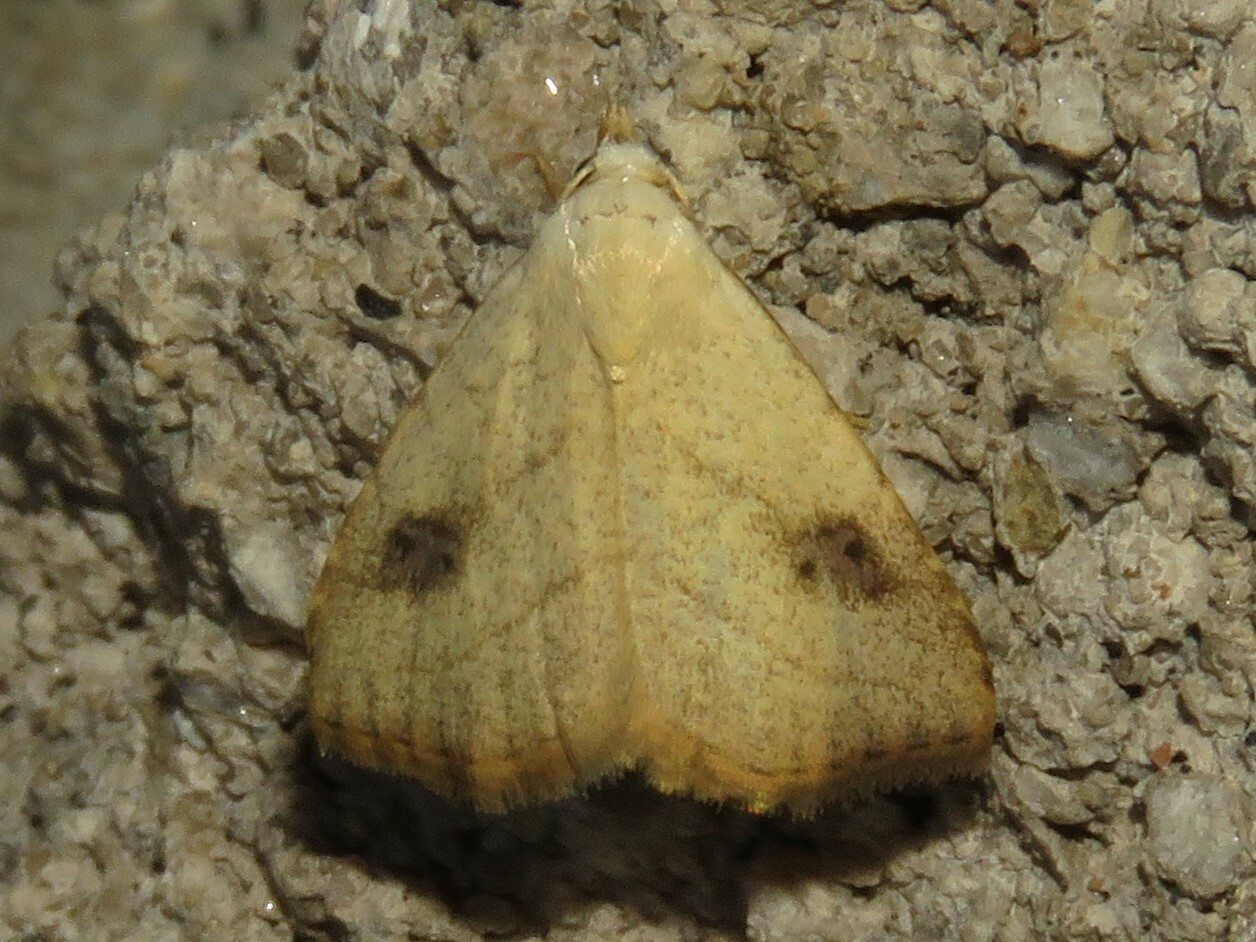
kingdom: Animalia
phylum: Arthropoda
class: Insecta
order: Lepidoptera
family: Erebidae
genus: Rivula
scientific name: Rivula propinqualis
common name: Spotted grass moth
